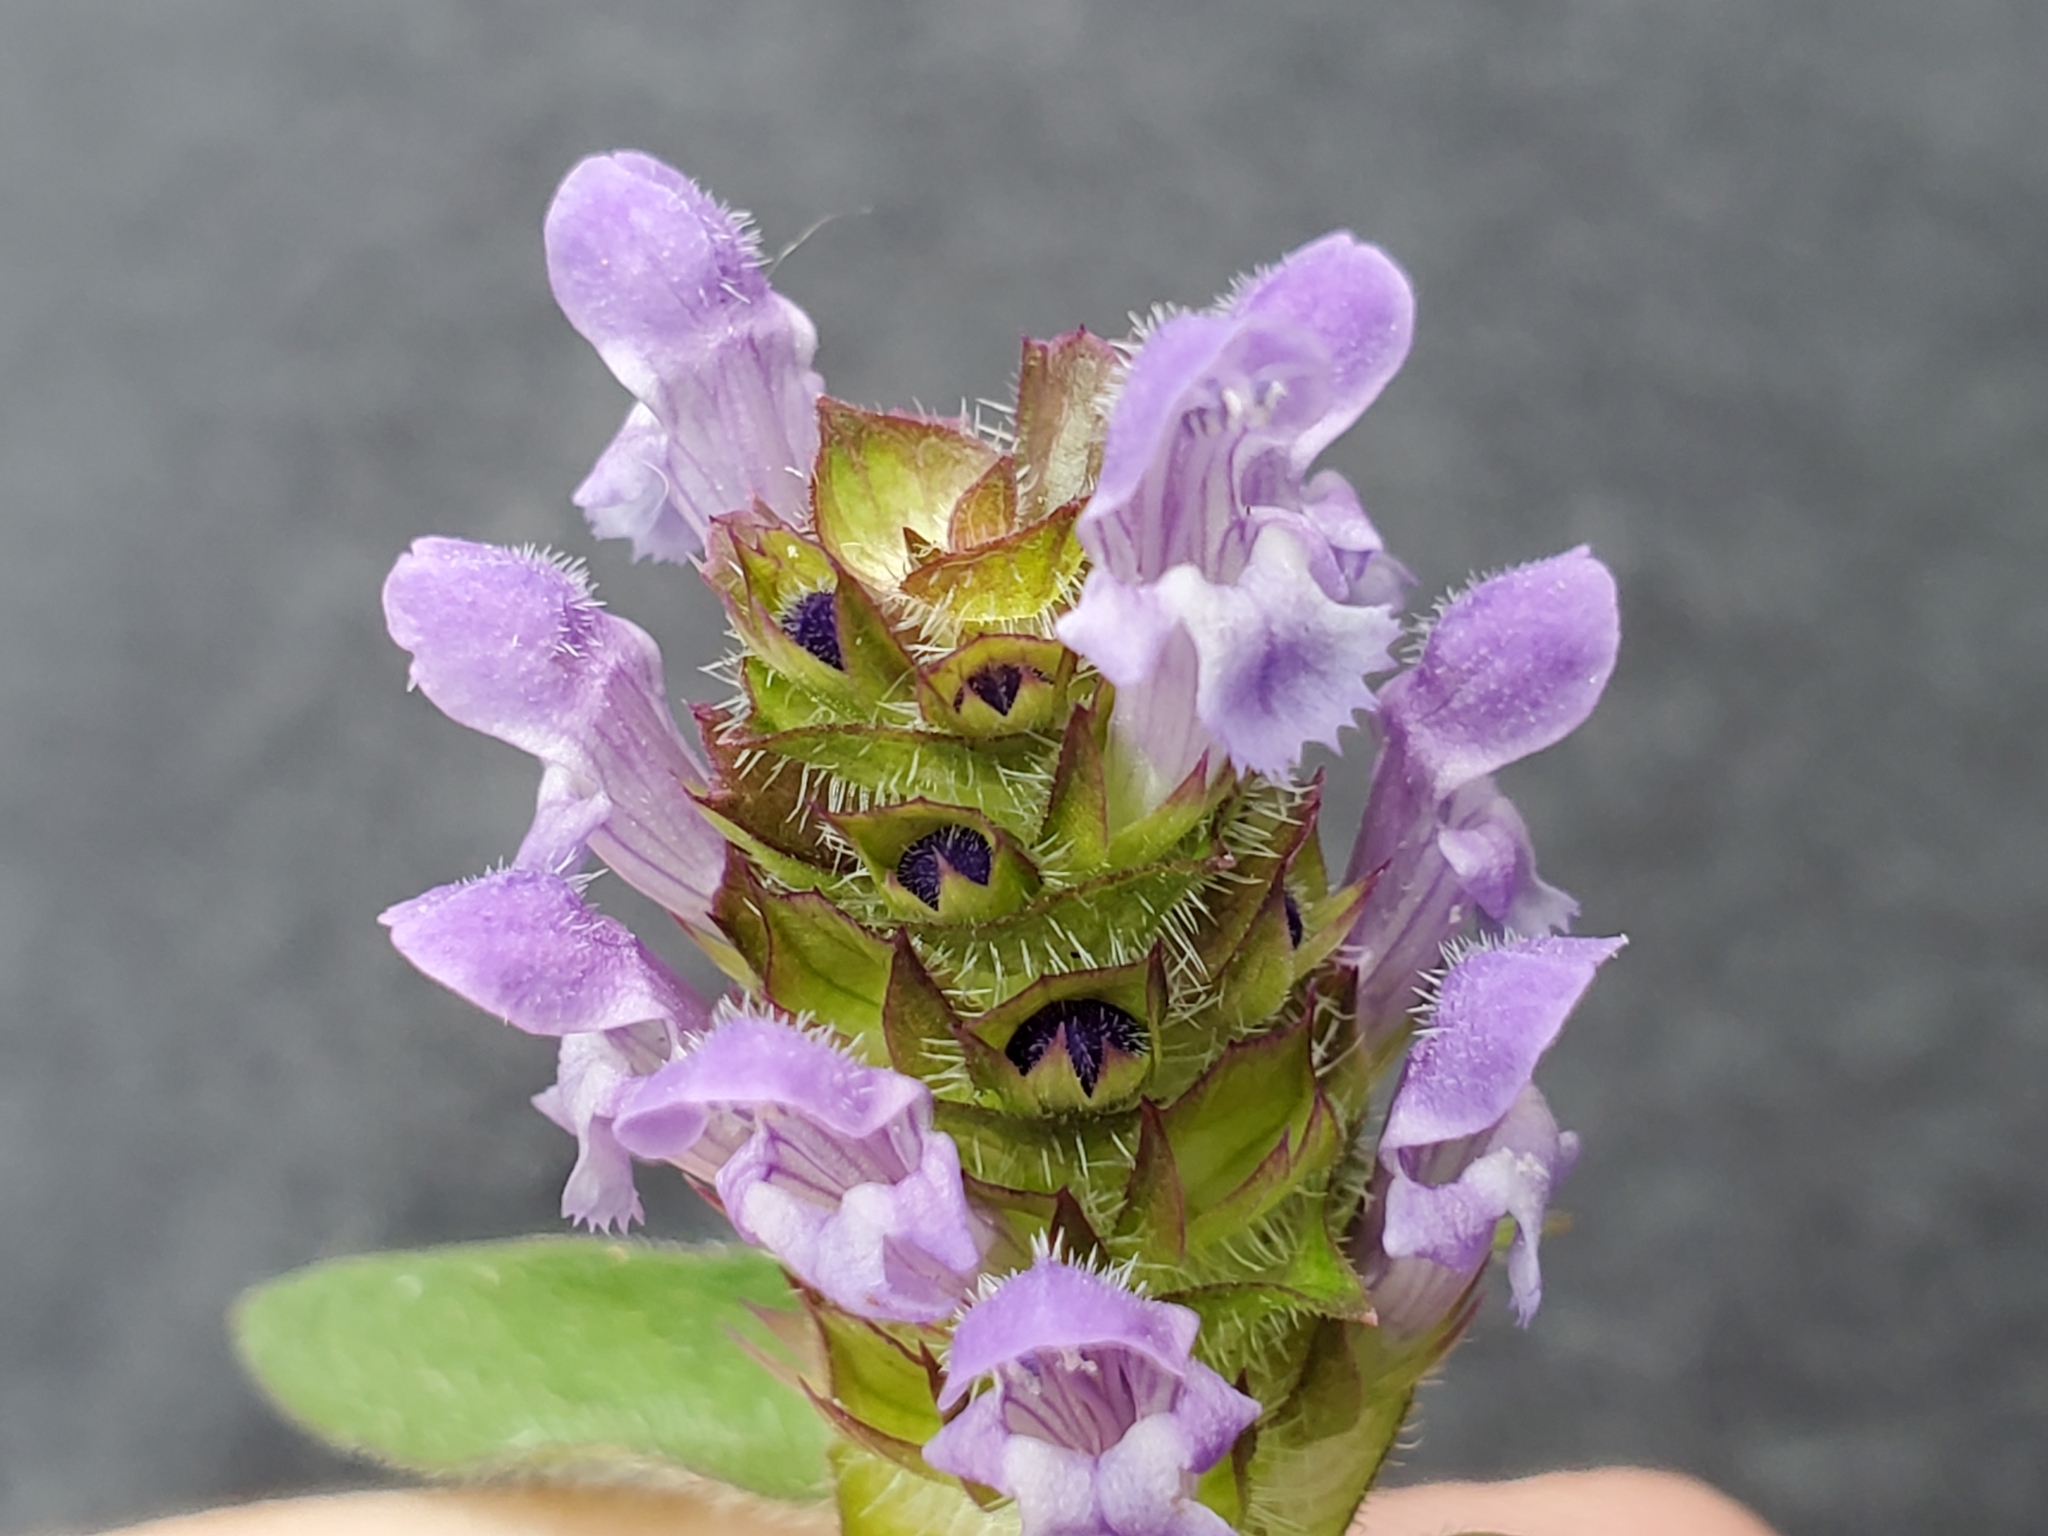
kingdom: Plantae
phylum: Tracheophyta
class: Magnoliopsida
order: Lamiales
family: Lamiaceae
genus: Prunella
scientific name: Prunella vulgaris
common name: Heal-all
